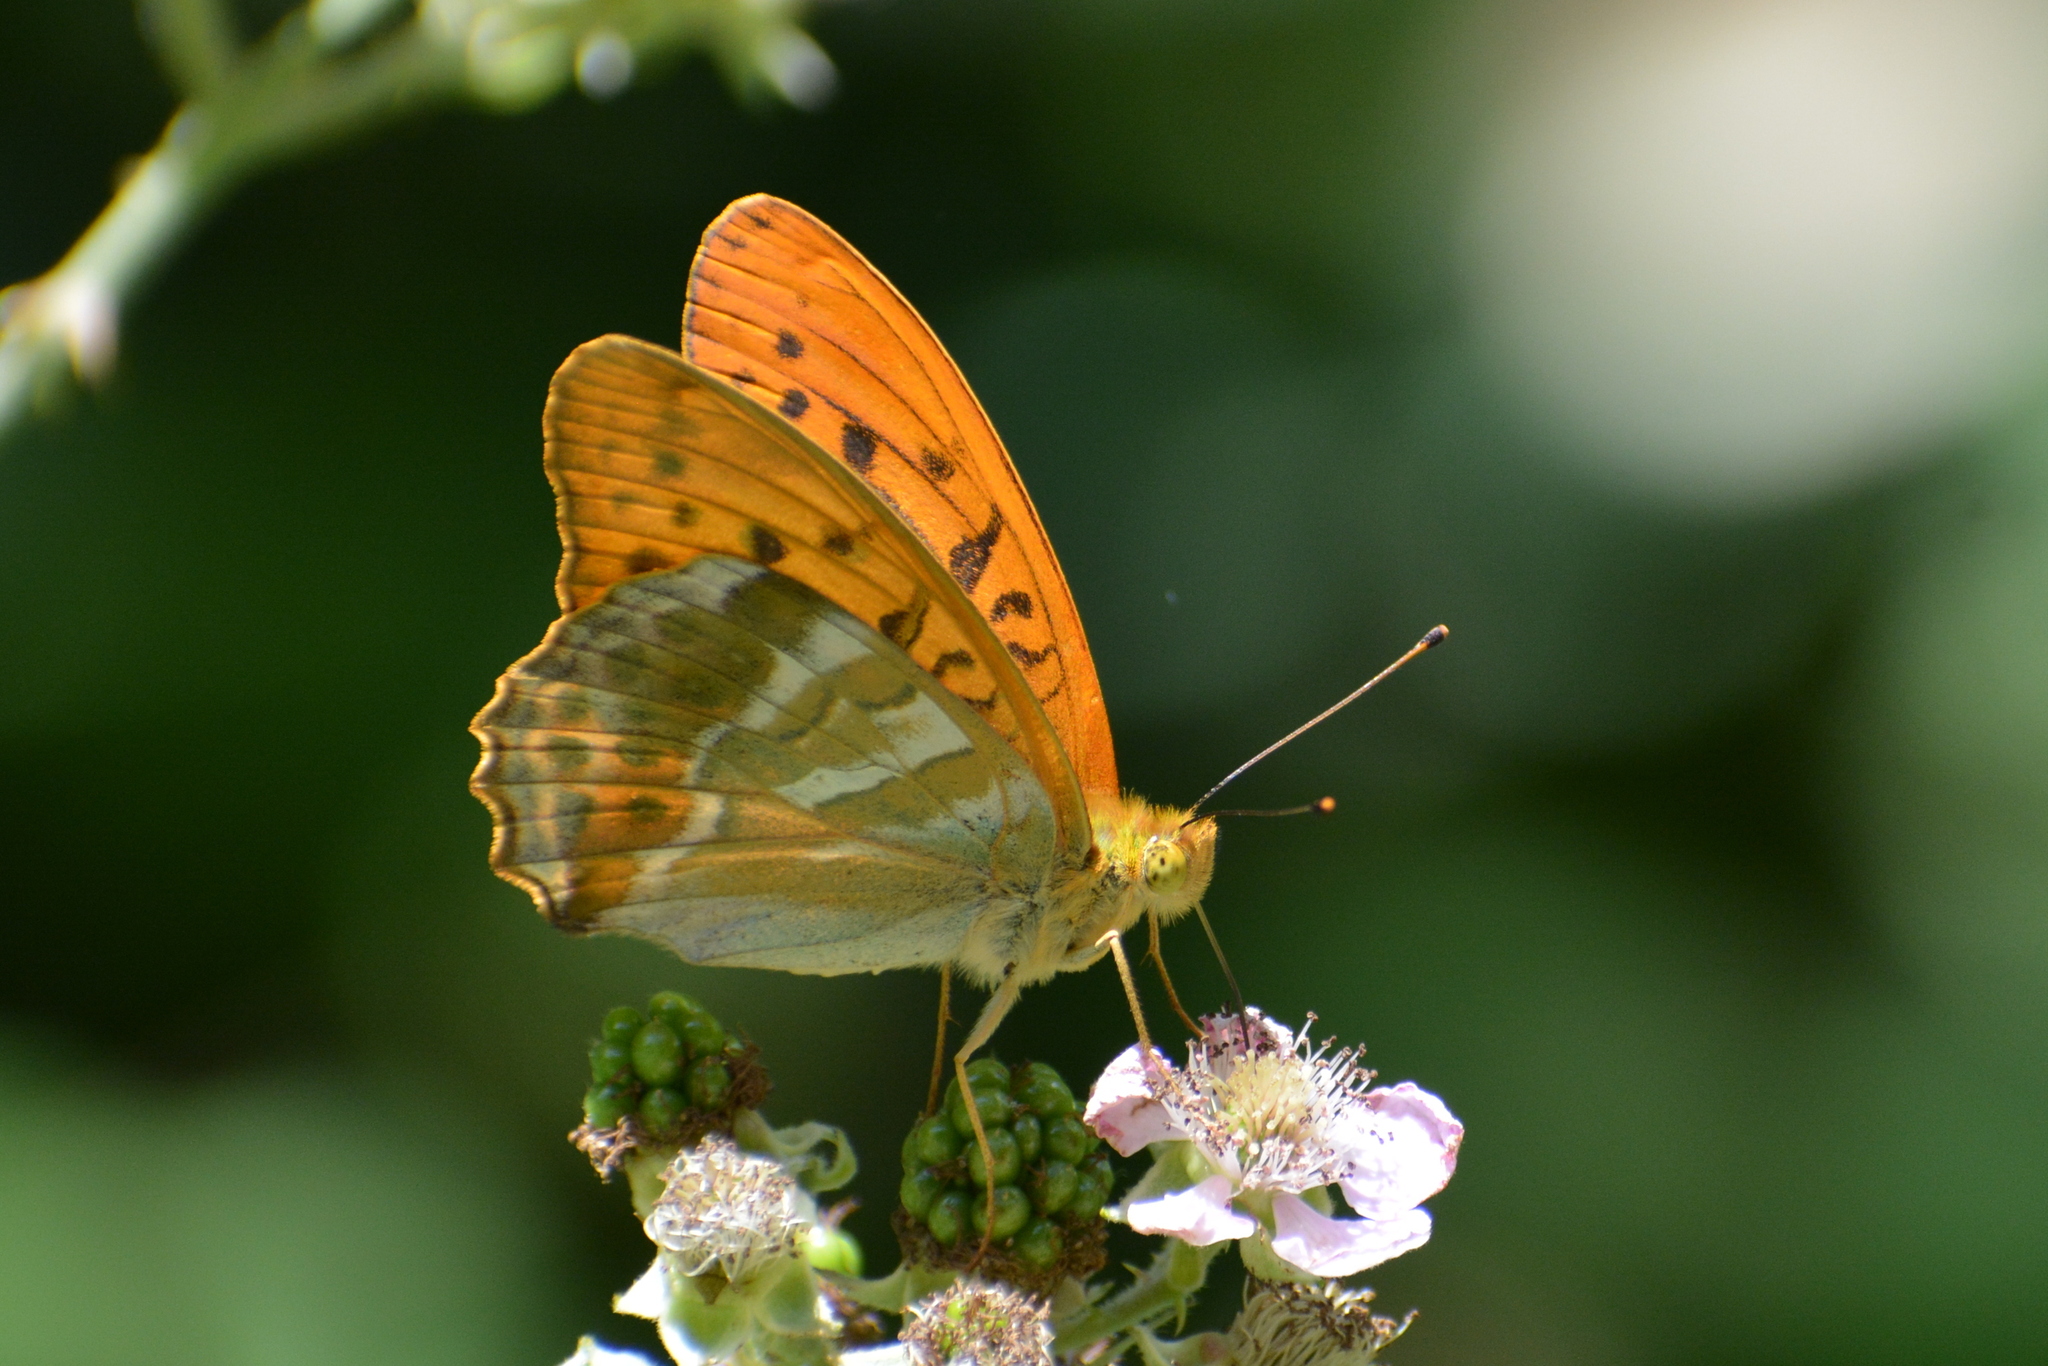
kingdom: Animalia
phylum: Arthropoda
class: Insecta
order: Lepidoptera
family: Nymphalidae
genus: Argynnis
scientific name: Argynnis paphia
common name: Silver-washed fritillary
